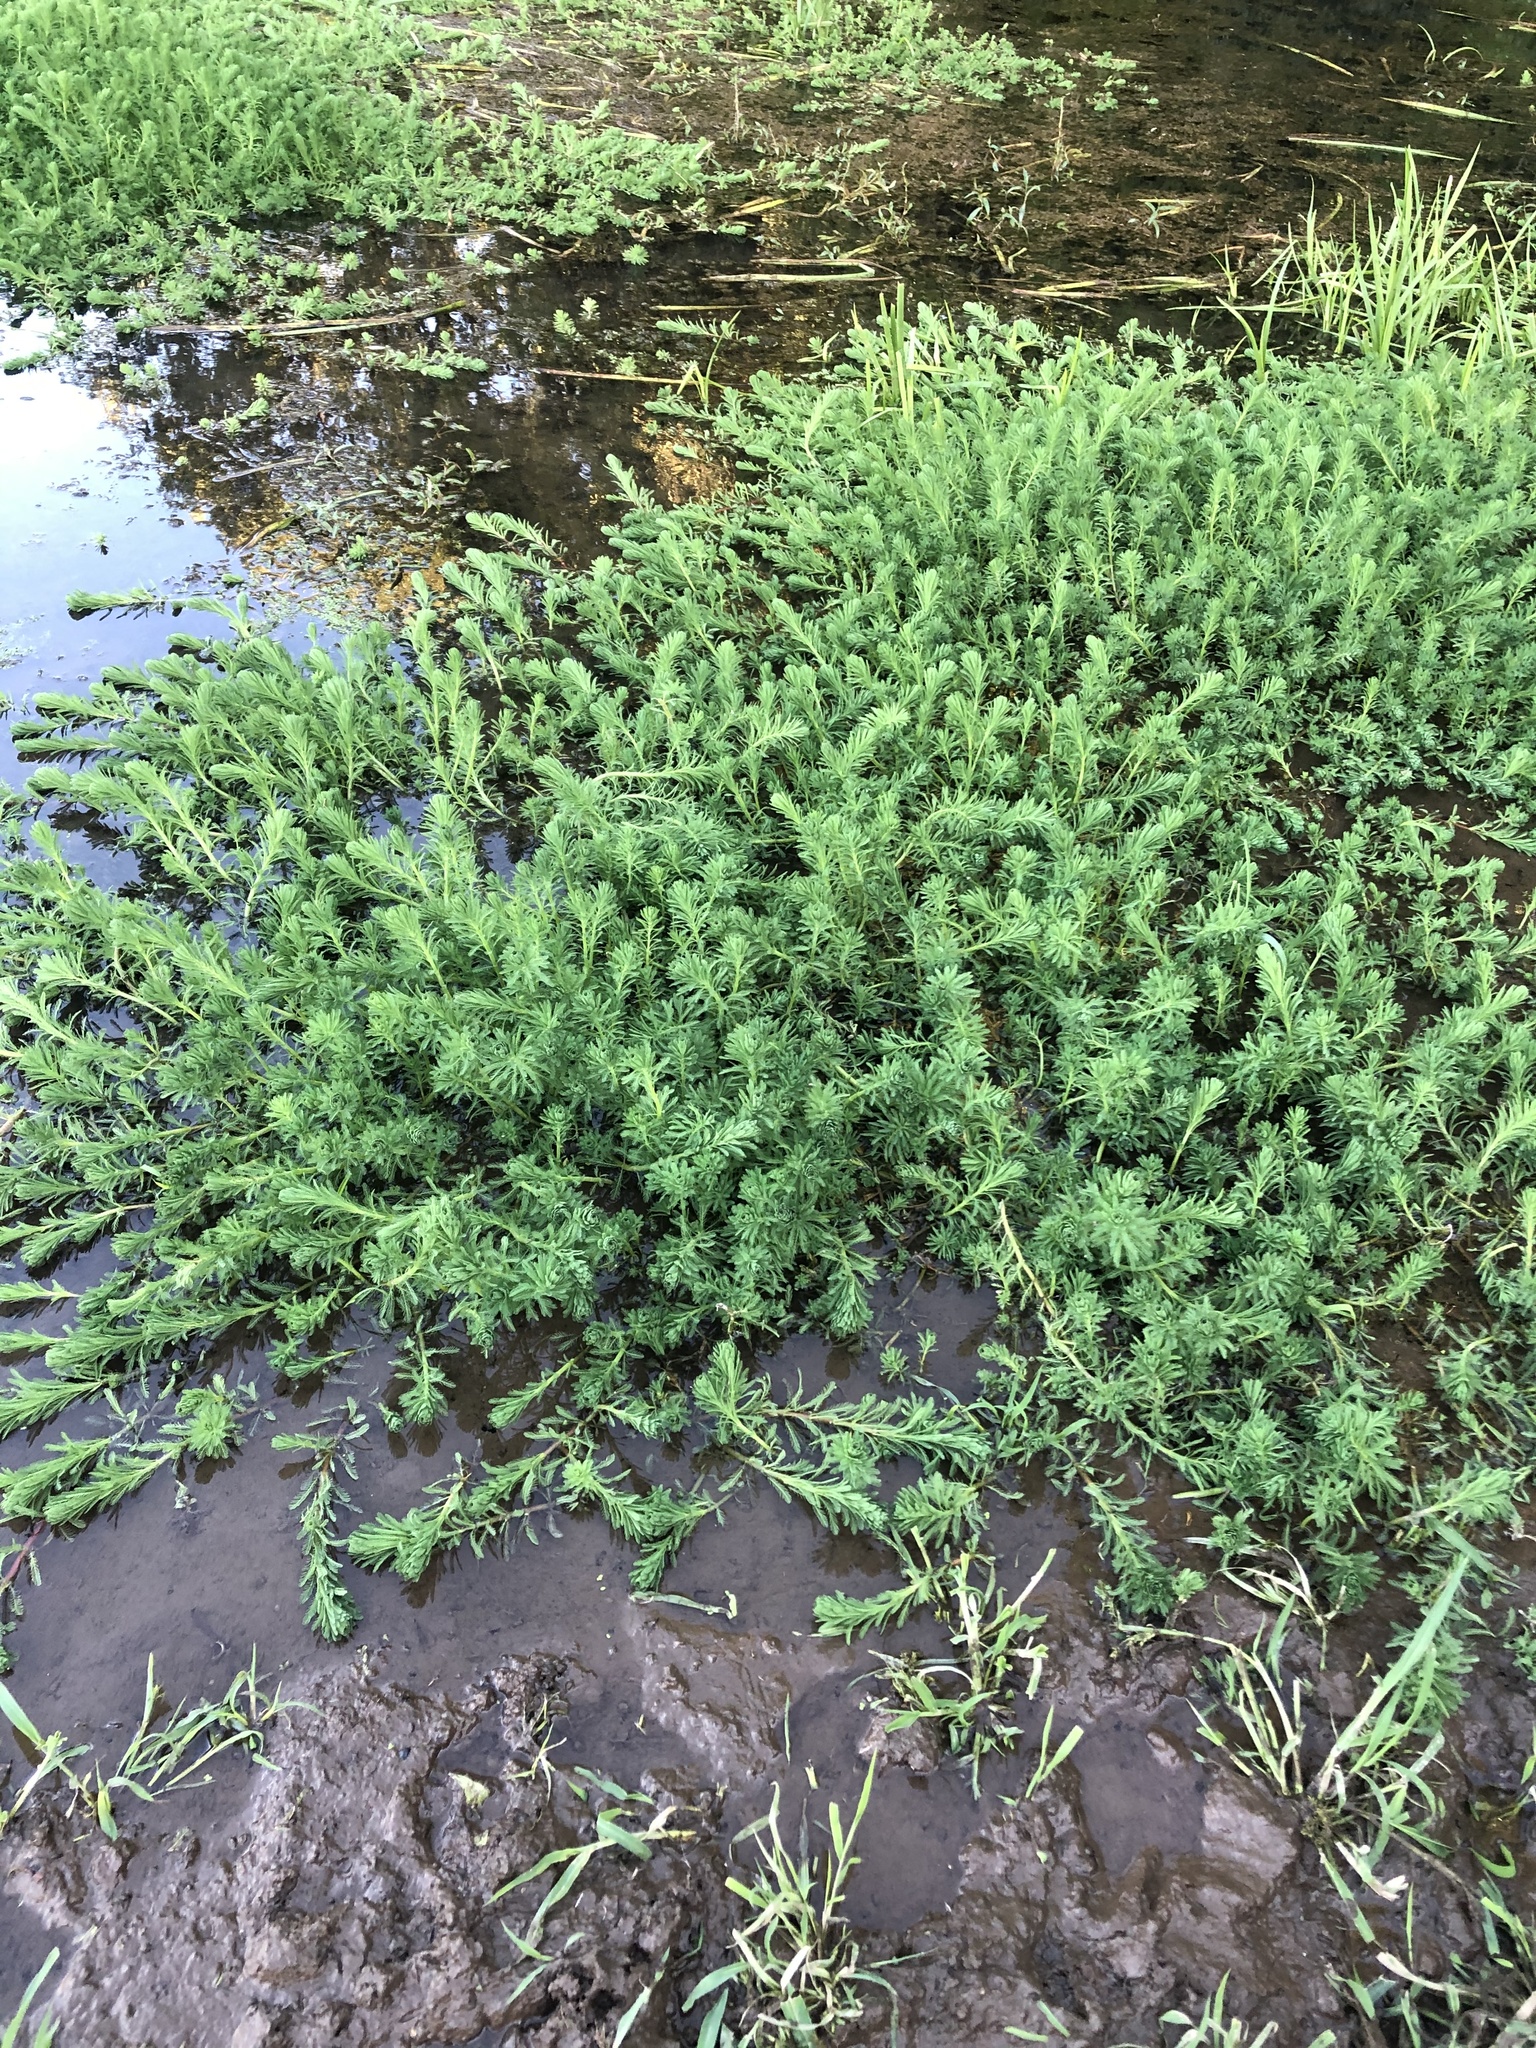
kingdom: Plantae
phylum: Tracheophyta
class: Magnoliopsida
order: Saxifragales
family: Haloragaceae
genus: Myriophyllum
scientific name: Myriophyllum aquaticum
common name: Parrot's feather
